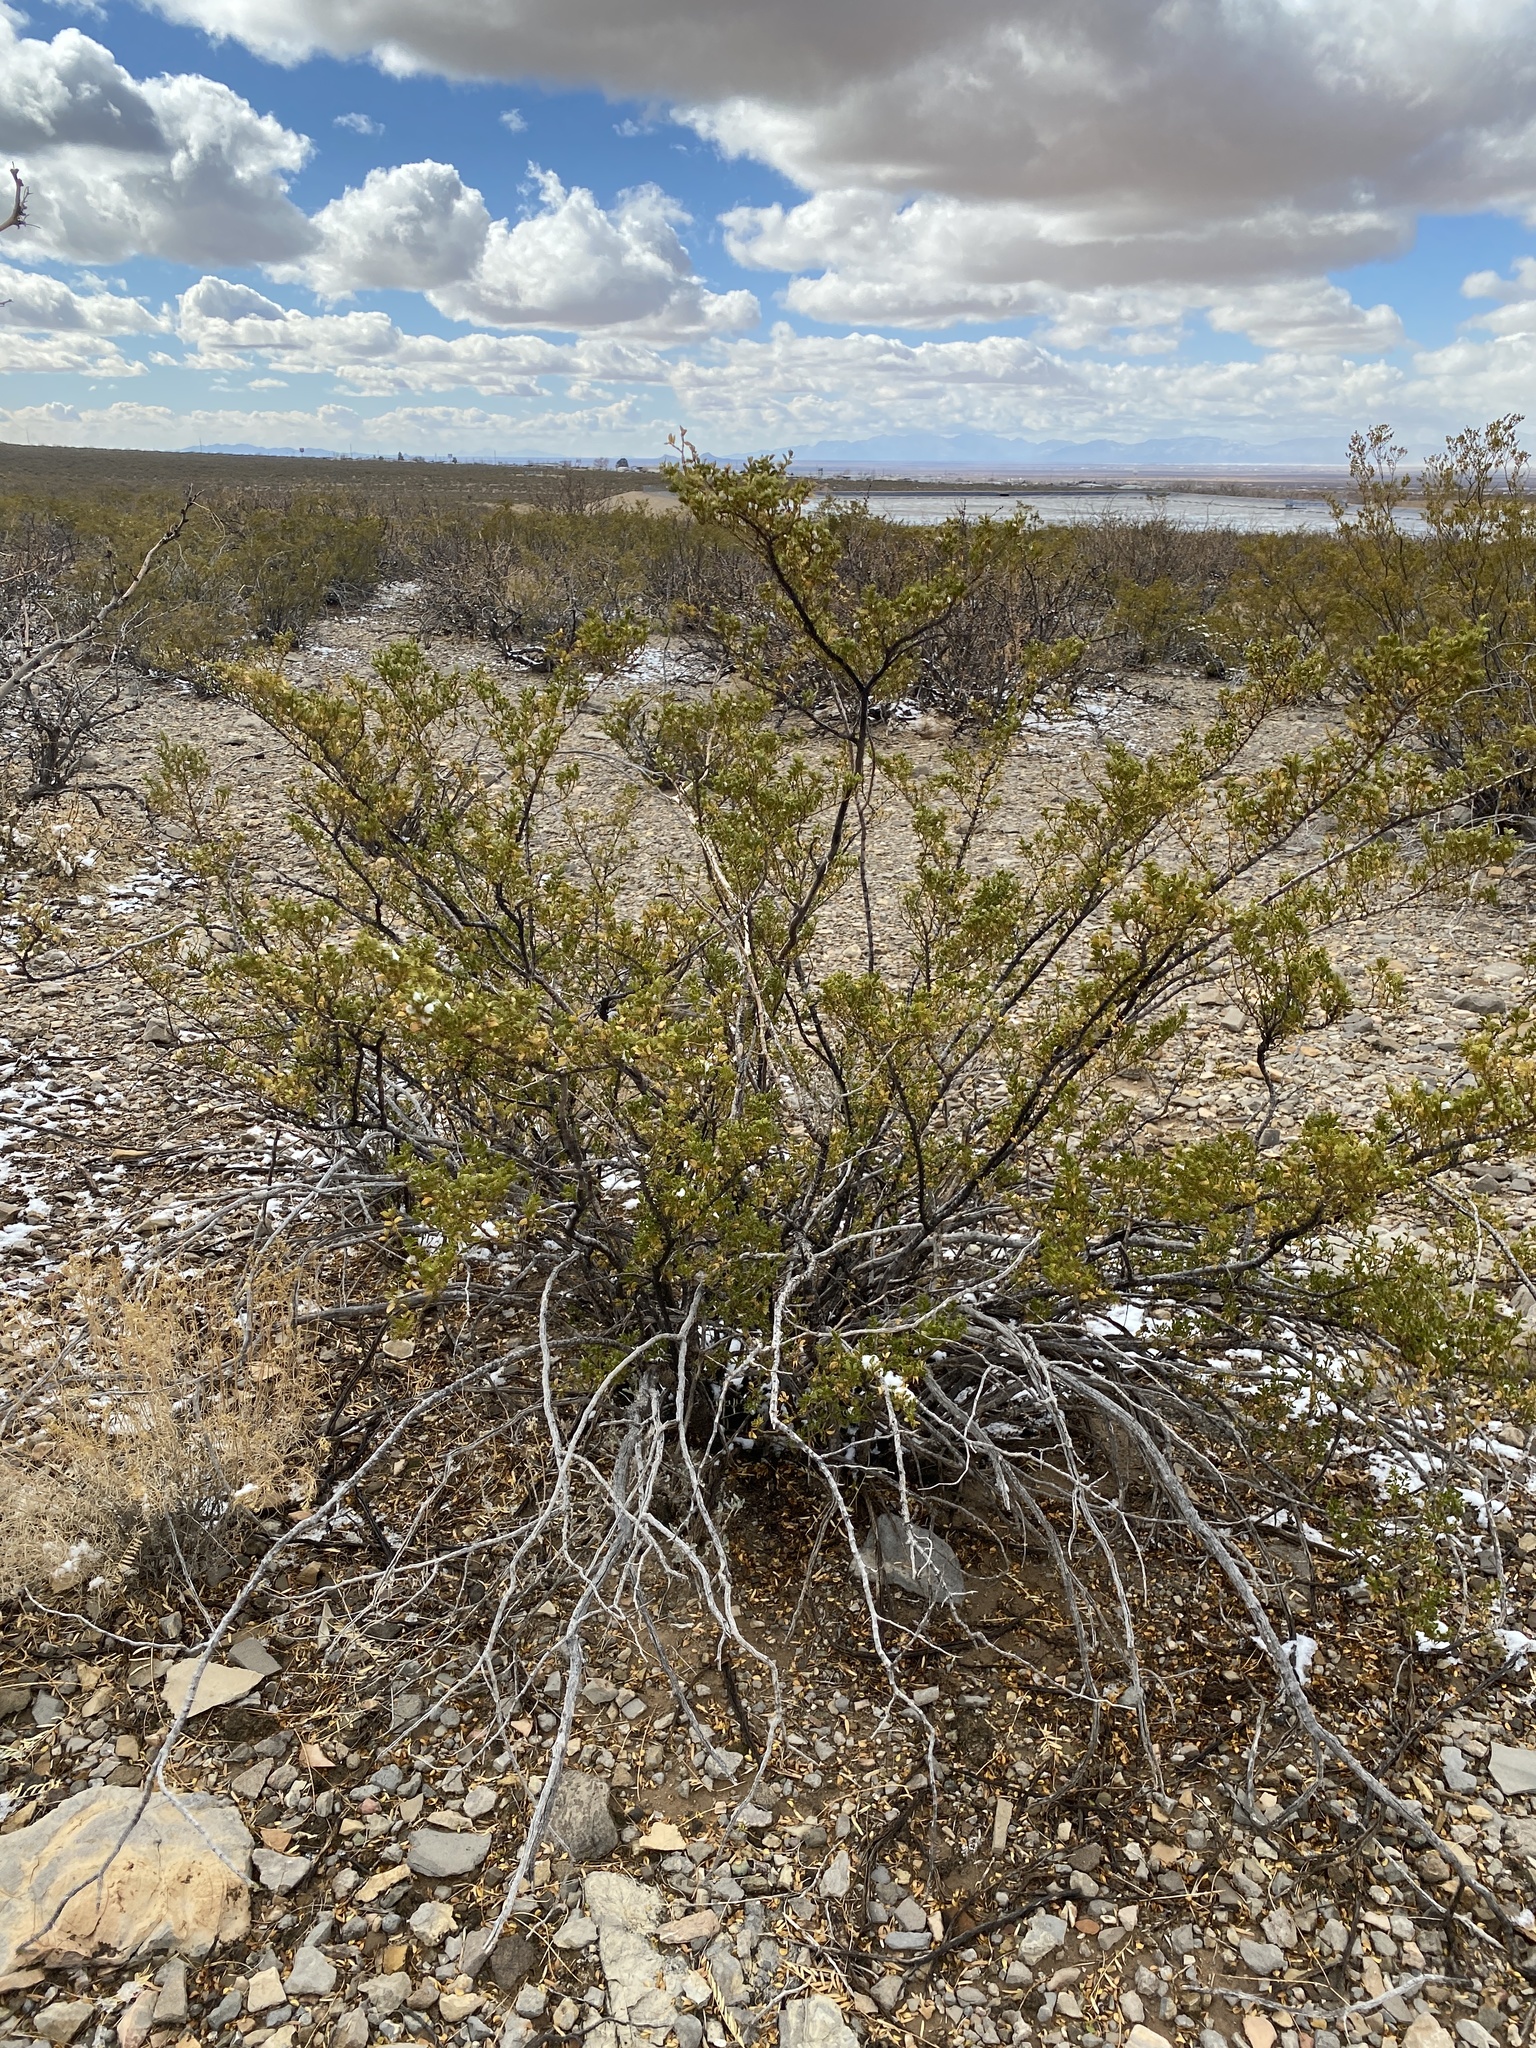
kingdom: Plantae
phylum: Tracheophyta
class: Magnoliopsida
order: Zygophyllales
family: Zygophyllaceae
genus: Larrea
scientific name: Larrea tridentata
